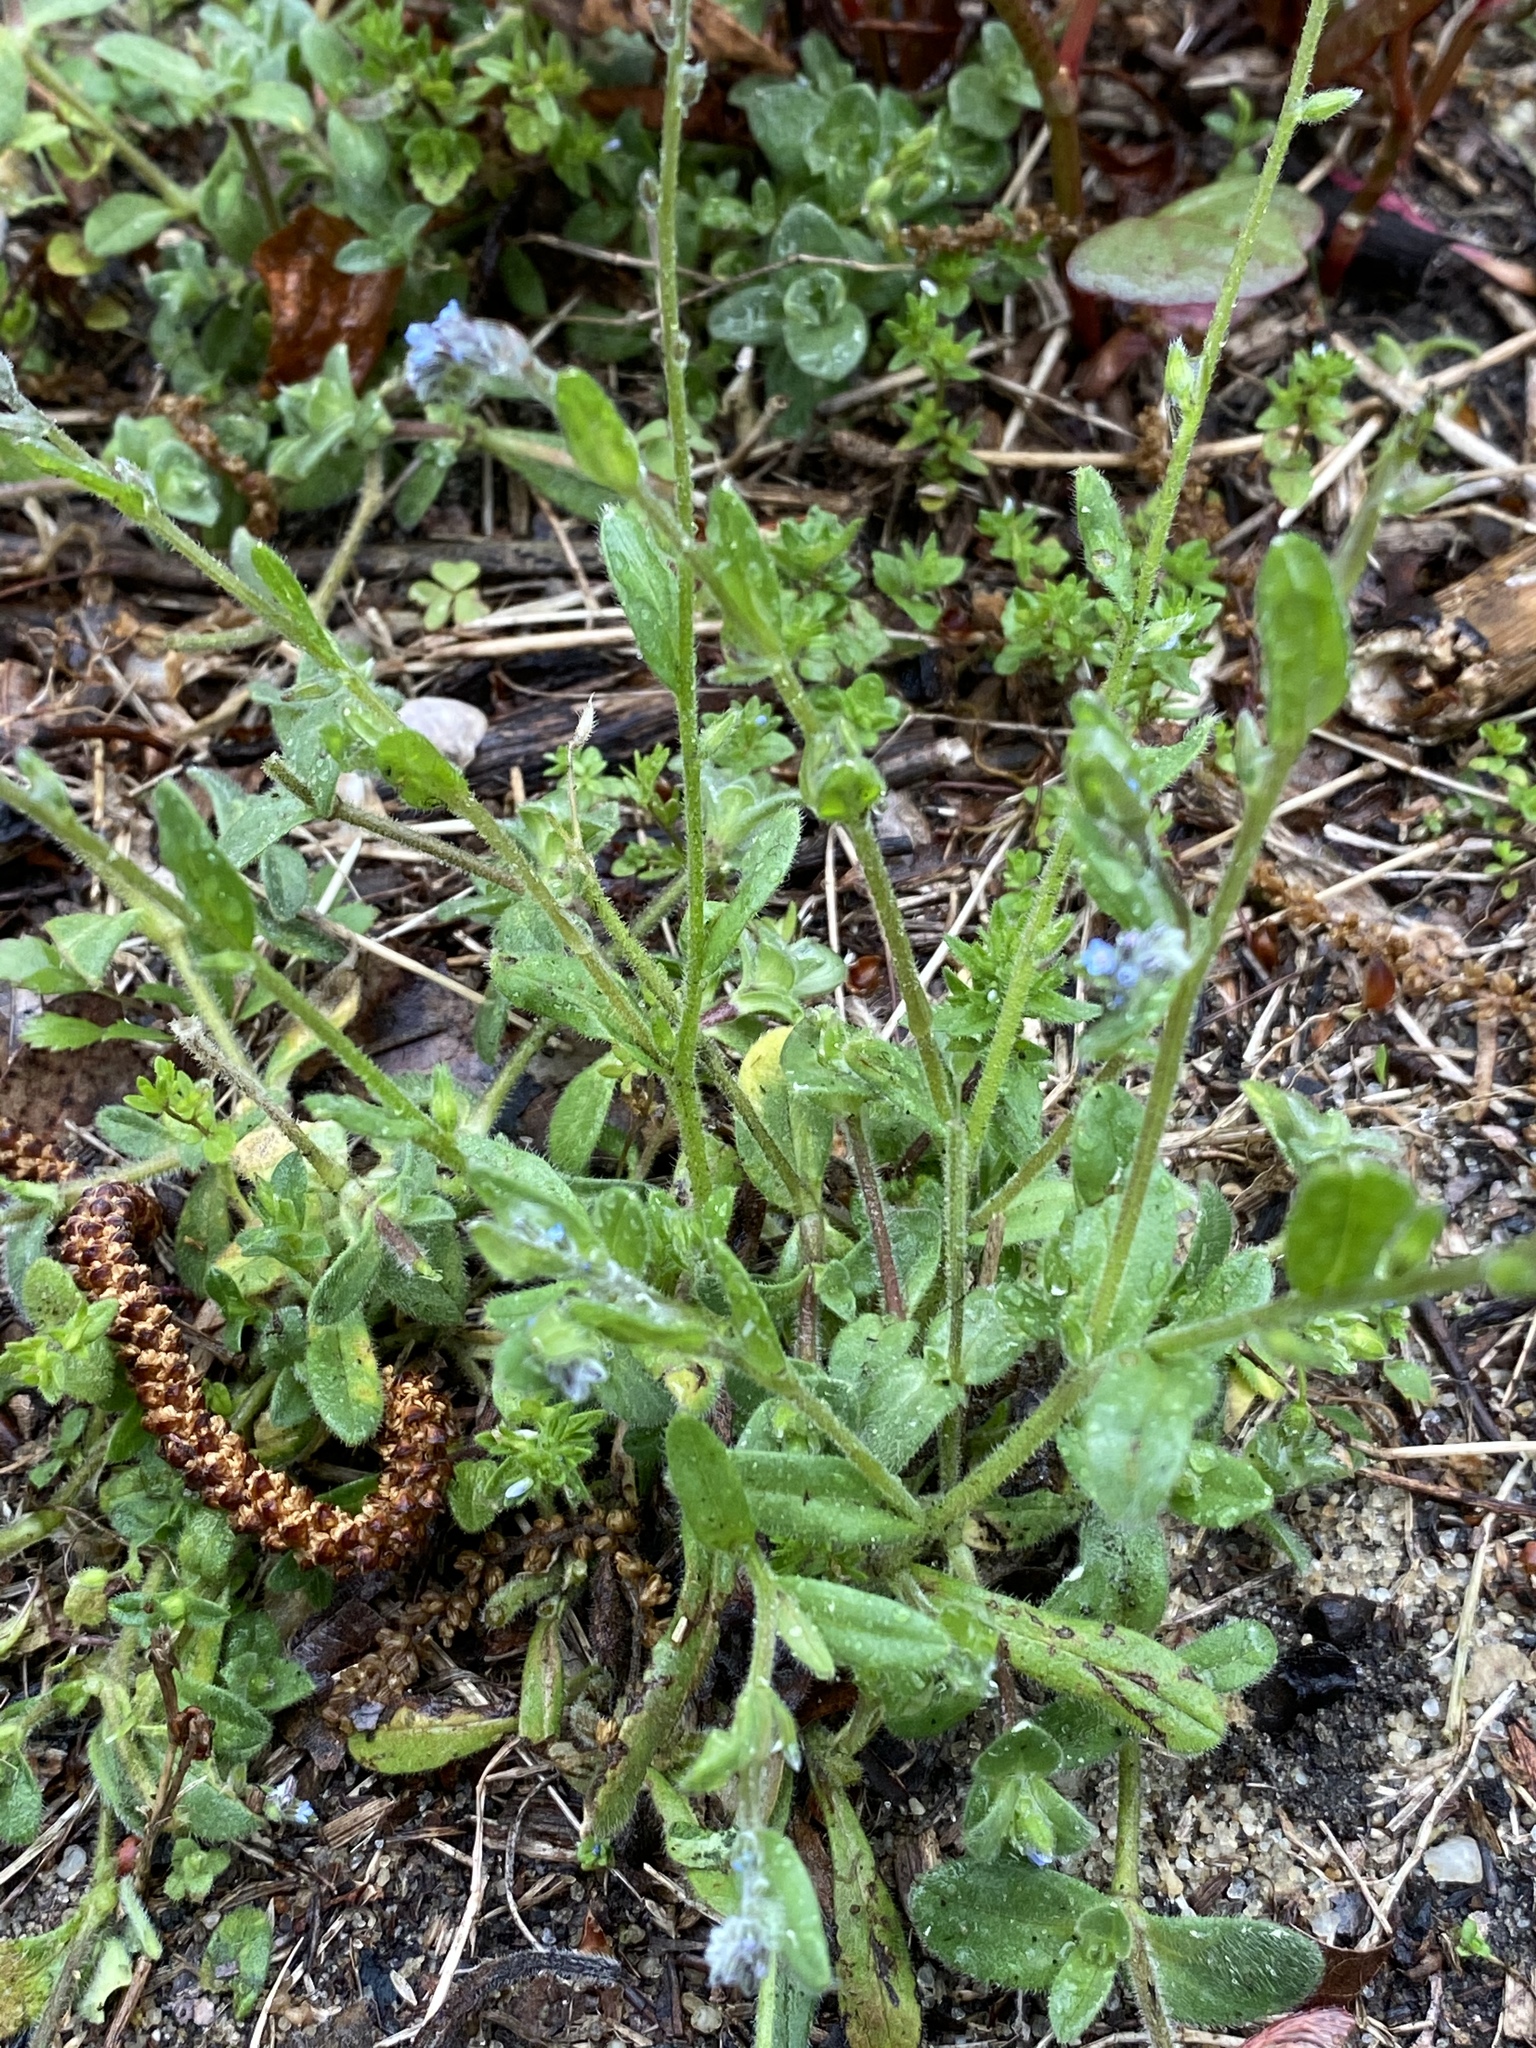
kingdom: Plantae
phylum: Tracheophyta
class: Magnoliopsida
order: Boraginales
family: Boraginaceae
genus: Myosotis
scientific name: Myosotis stricta
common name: Strict forget-me-not
